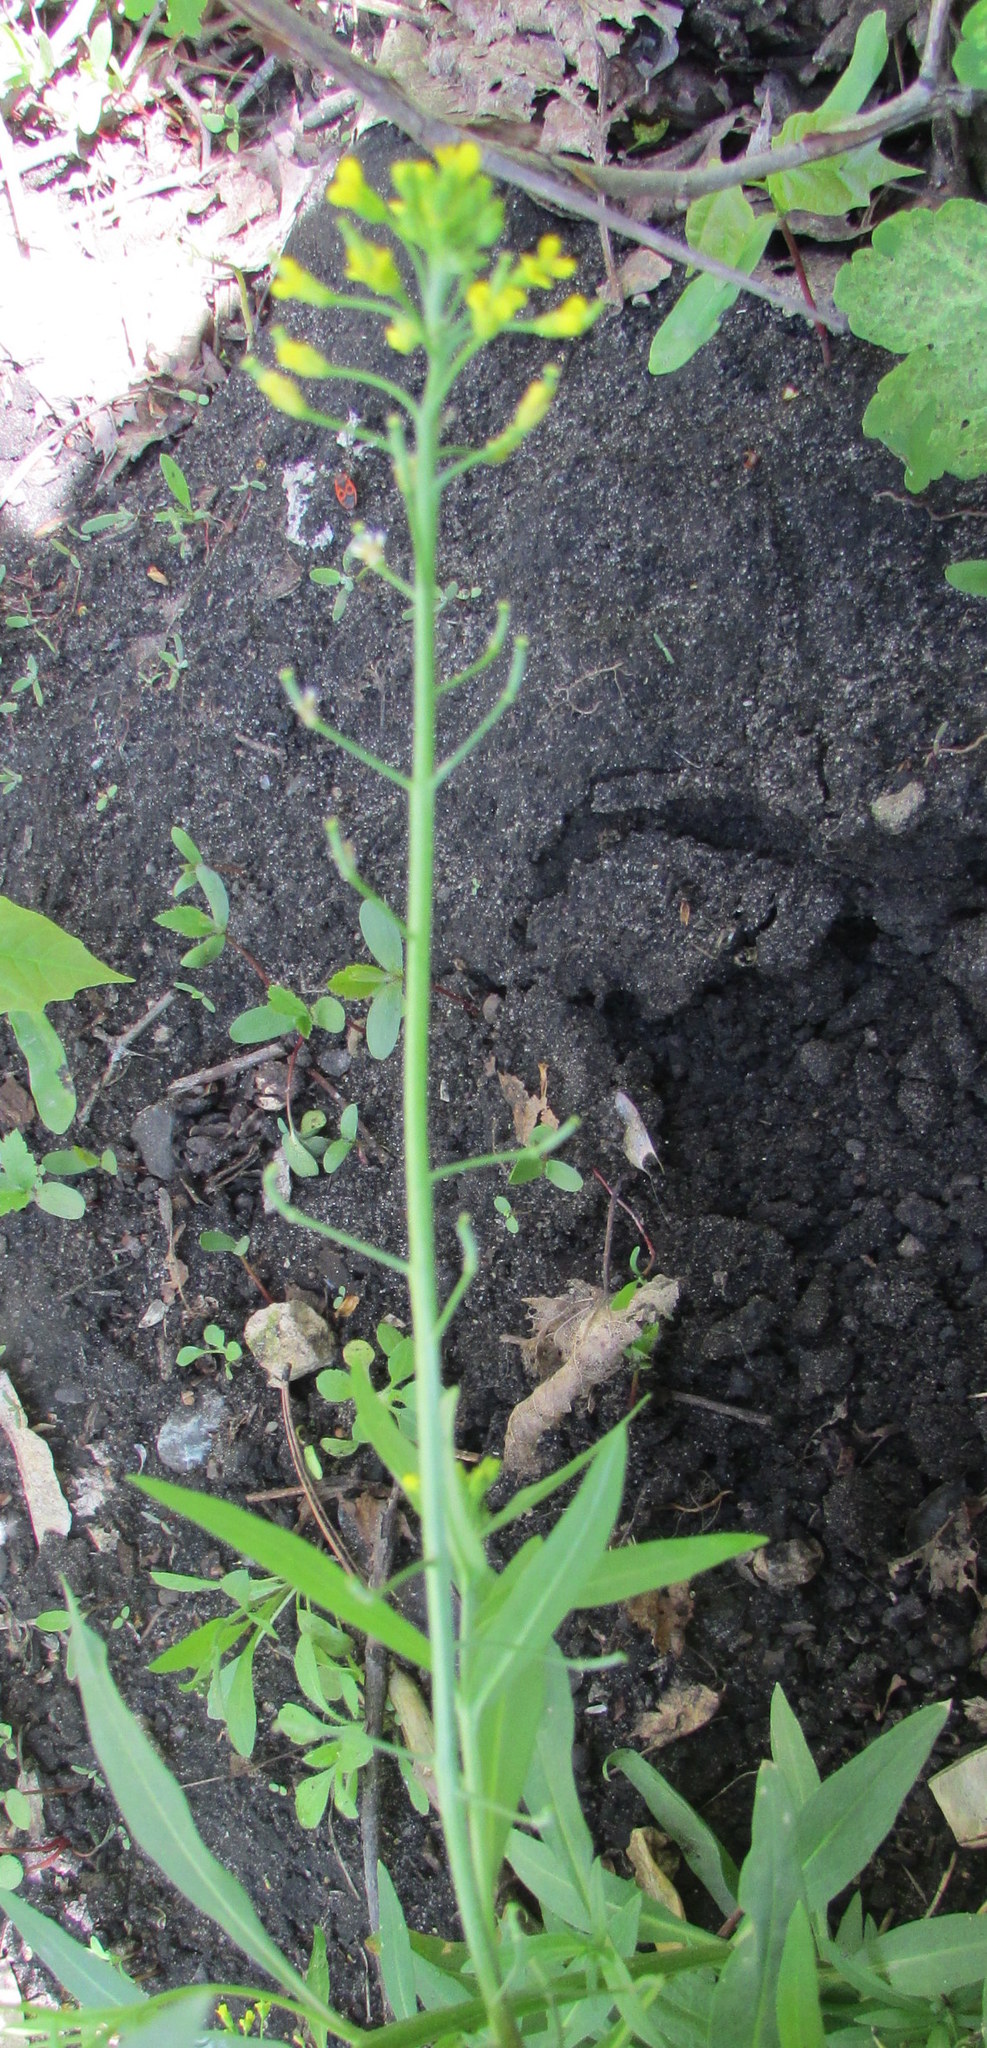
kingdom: Plantae
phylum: Tracheophyta
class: Magnoliopsida
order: Brassicales
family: Brassicaceae
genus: Erysimum
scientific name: Erysimum cheiranthoides
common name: Treacle mustard
